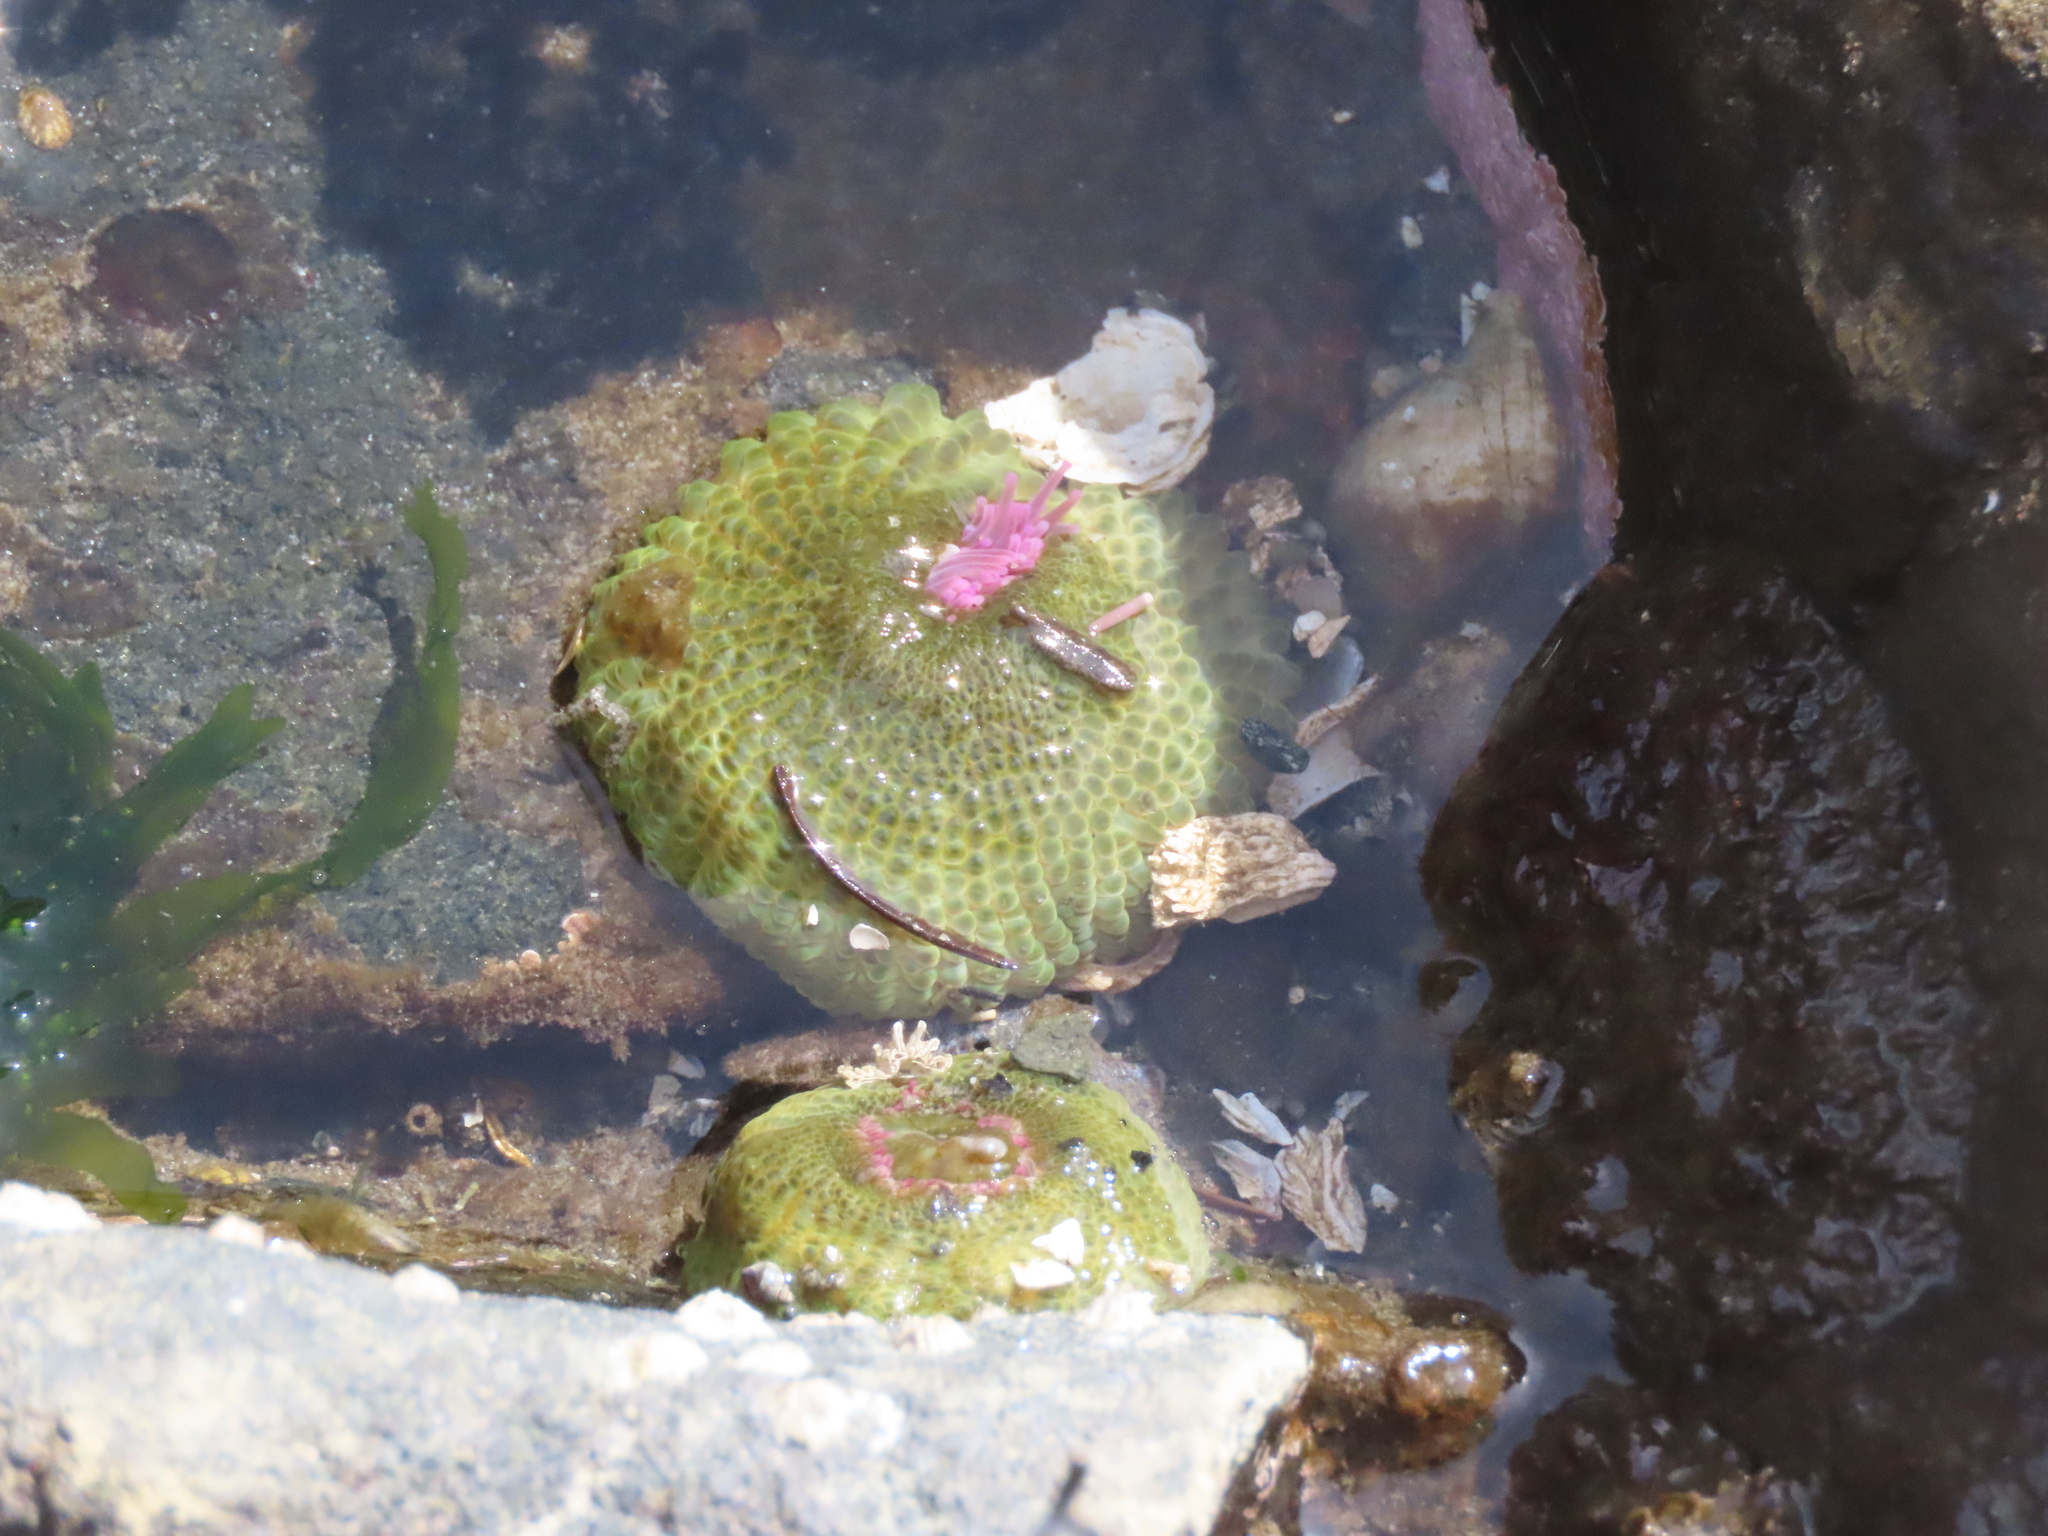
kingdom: Animalia
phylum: Cnidaria
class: Anthozoa
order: Actiniaria
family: Actiniidae
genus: Anthopleura
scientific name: Anthopleura elegantissima
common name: Clonal anemone
